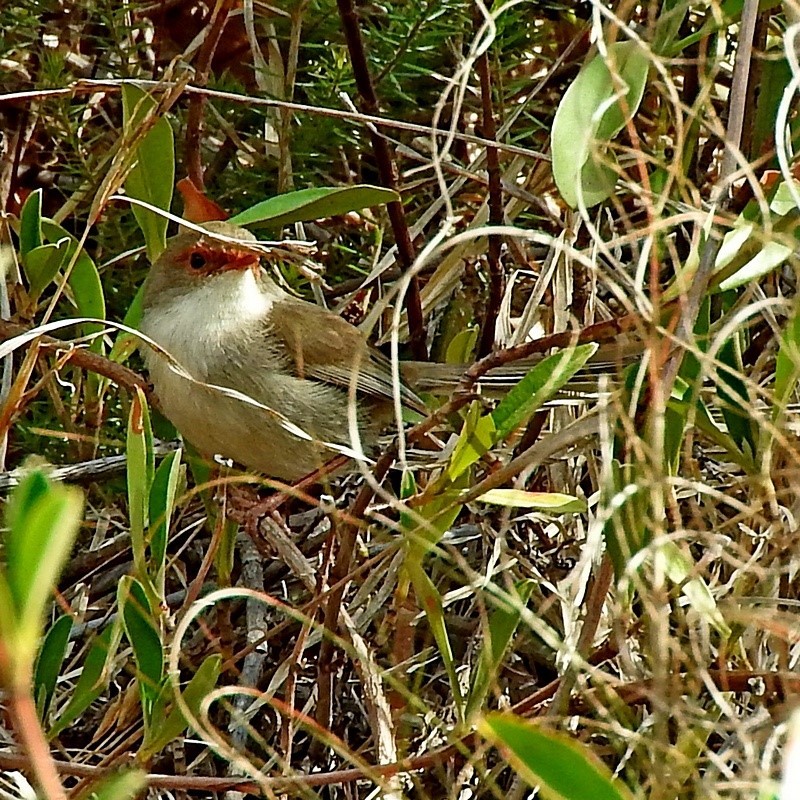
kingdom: Animalia
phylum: Chordata
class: Aves
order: Passeriformes
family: Maluridae
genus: Malurus
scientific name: Malurus cyaneus
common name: Superb fairywren
